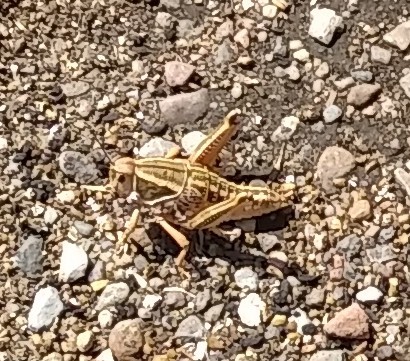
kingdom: Animalia
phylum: Arthropoda
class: Insecta
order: Orthoptera
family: Romaleidae
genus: Brachystola
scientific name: Brachystola magna
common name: Plains lubber grasshopper
